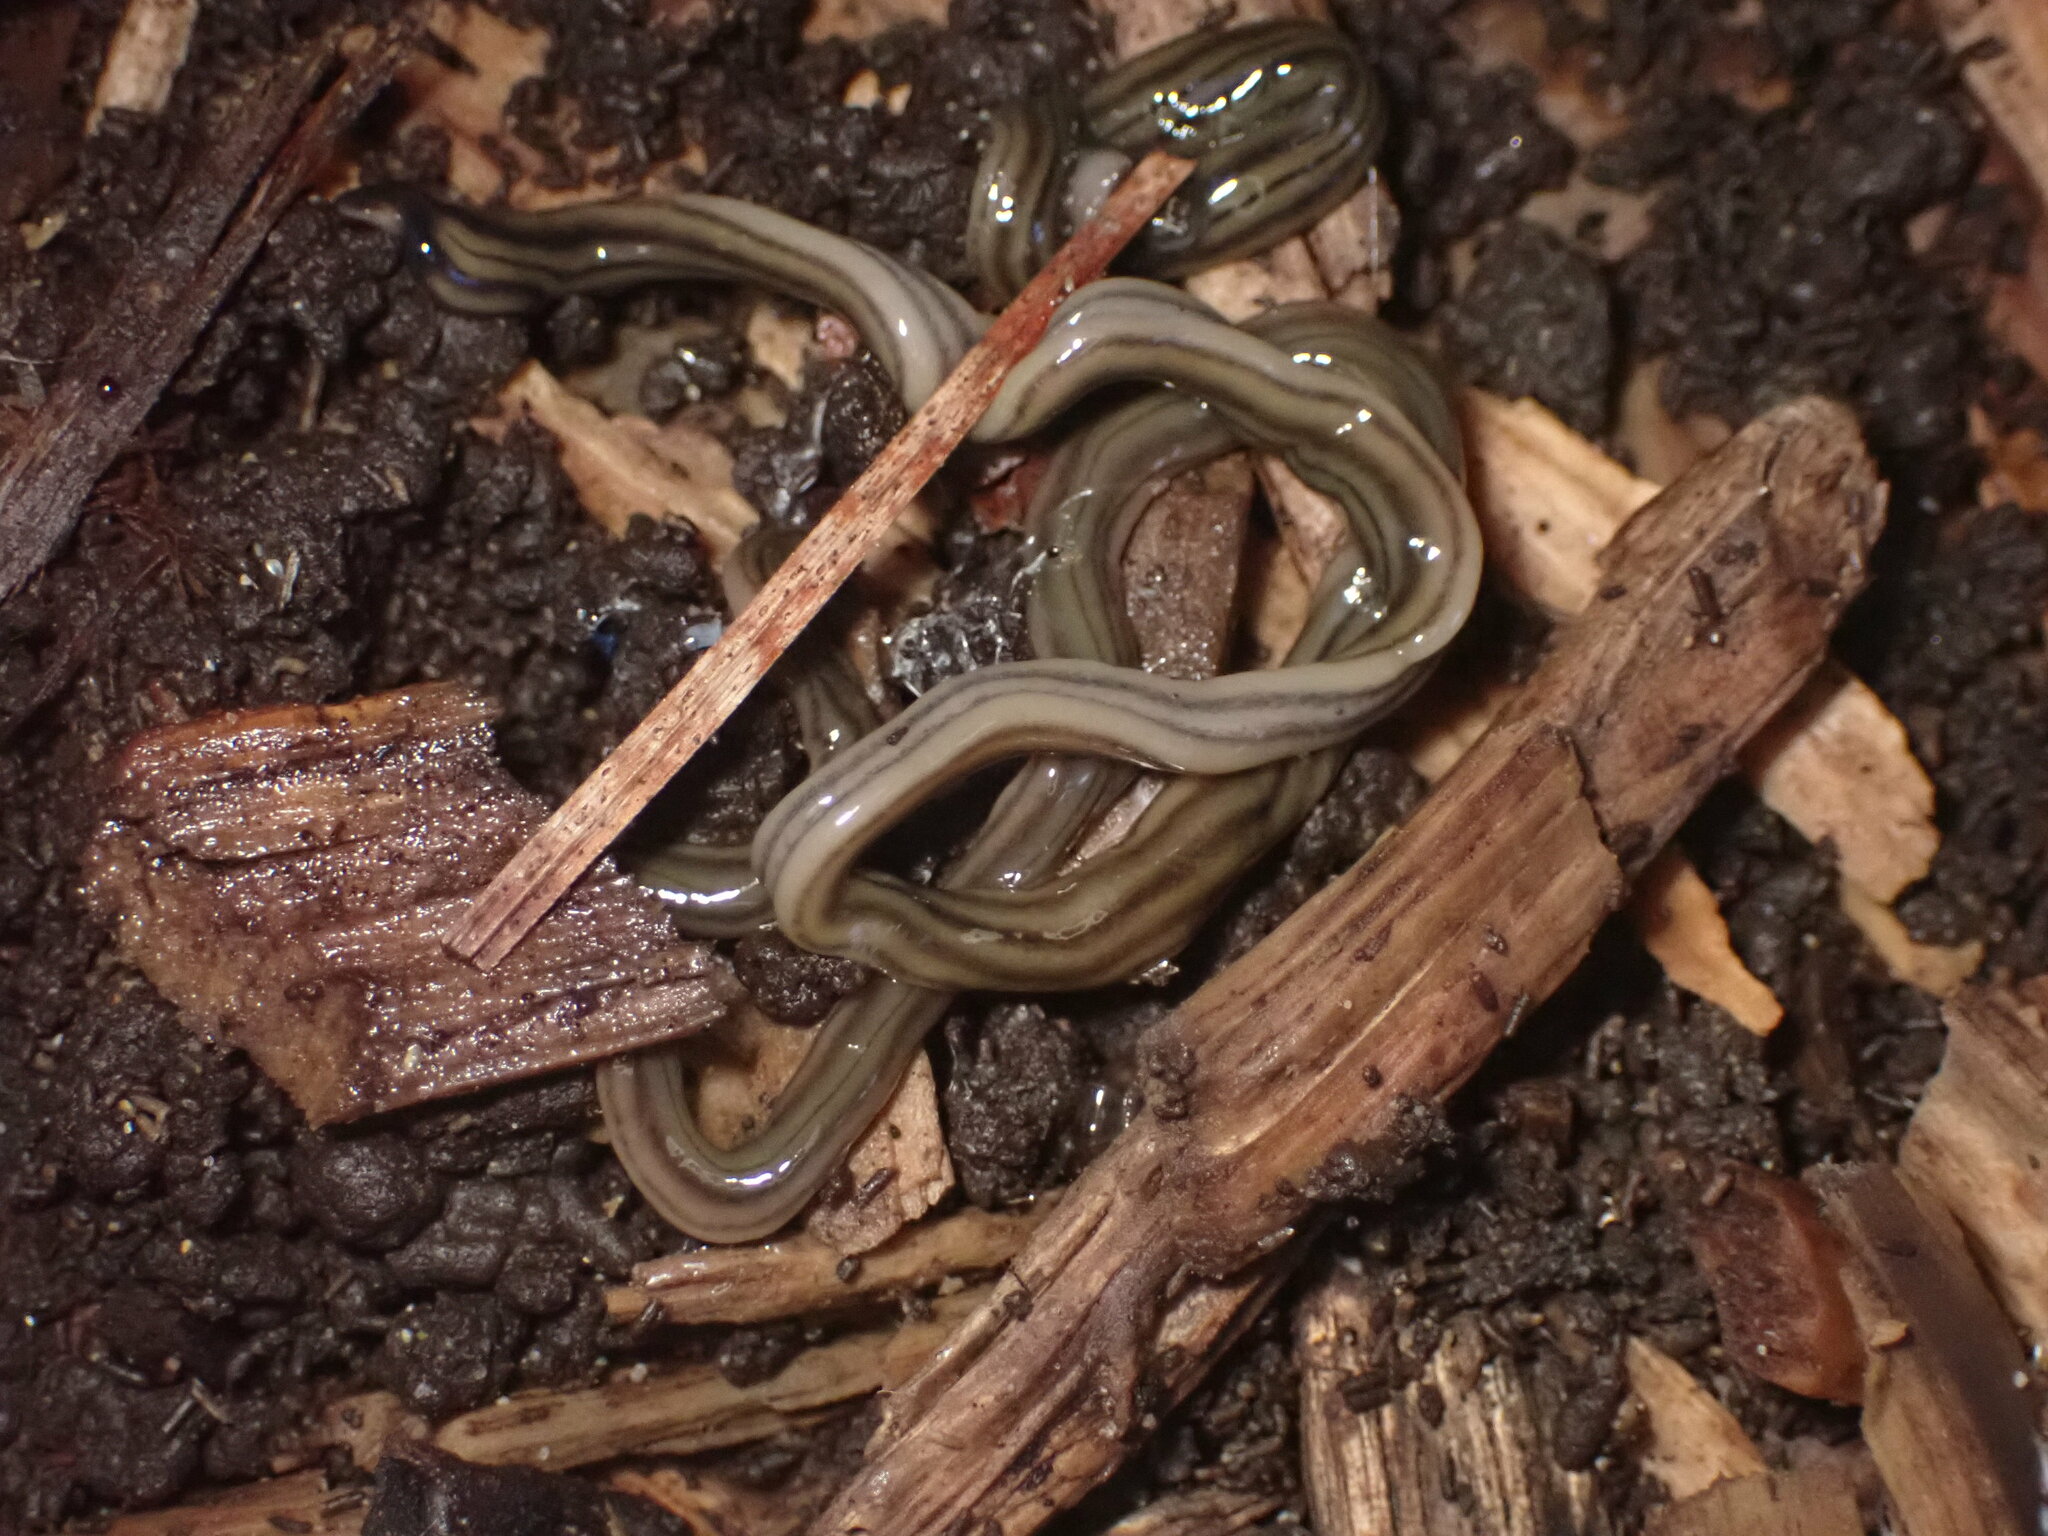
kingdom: Animalia
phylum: Platyhelminthes
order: Tricladida
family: Geoplanidae
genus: Bipalium
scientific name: Bipalium kewense
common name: Hammerhead flatworm
